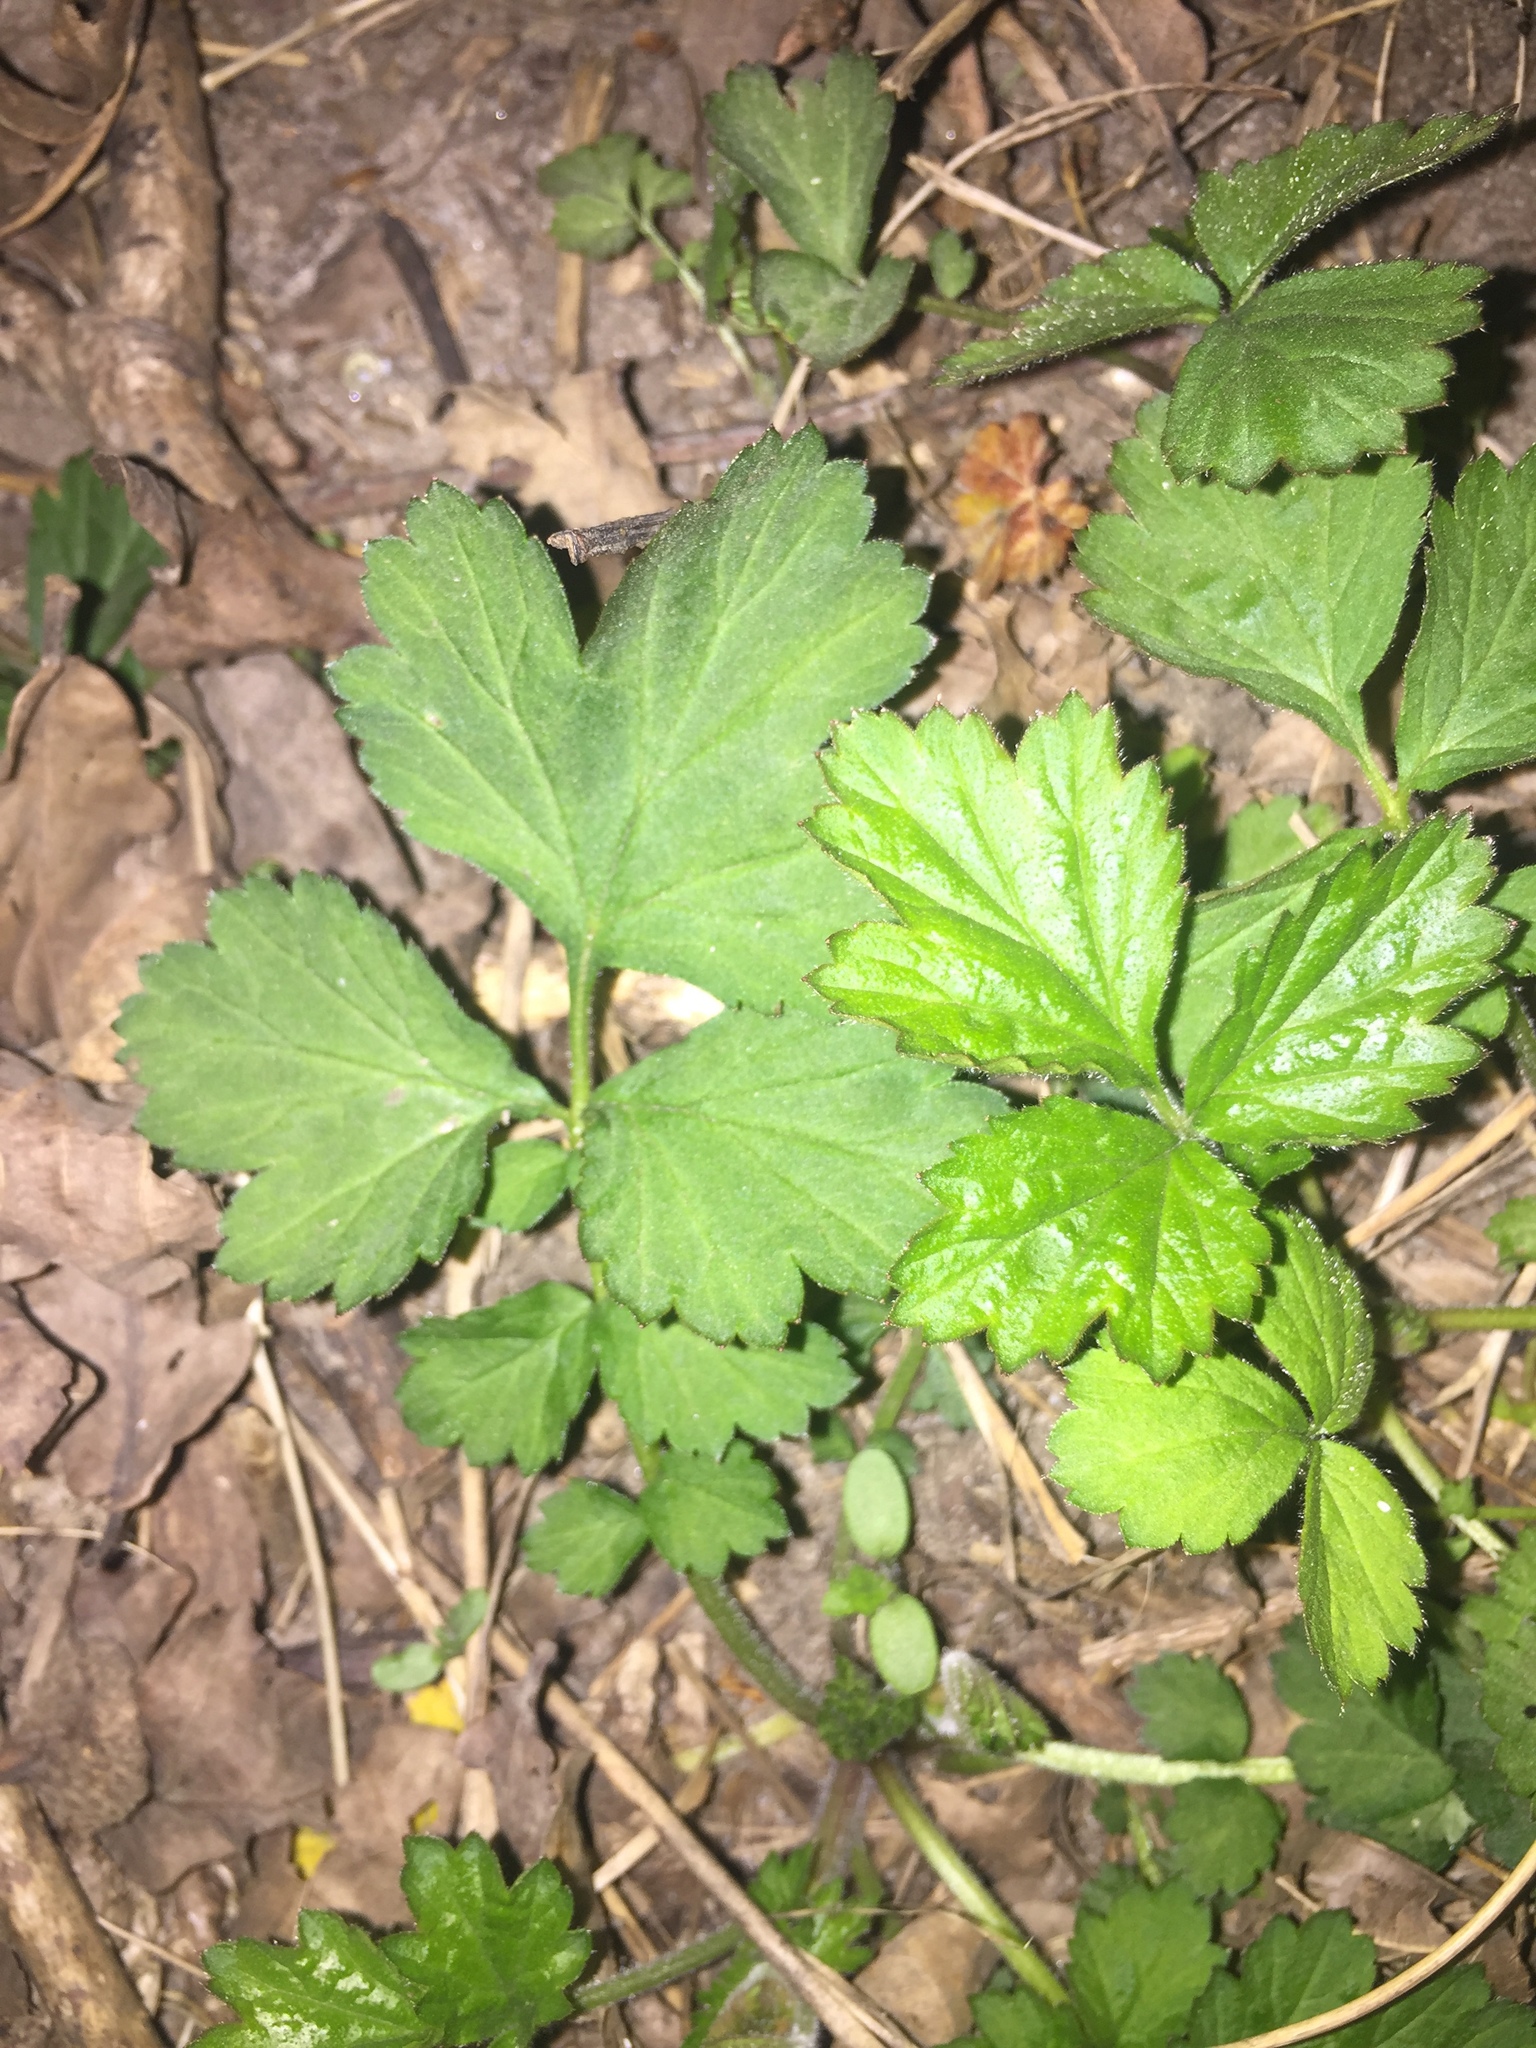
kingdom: Plantae
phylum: Tracheophyta
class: Magnoliopsida
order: Rosales
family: Rosaceae
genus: Geum
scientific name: Geum urbanum
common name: Wood avens
